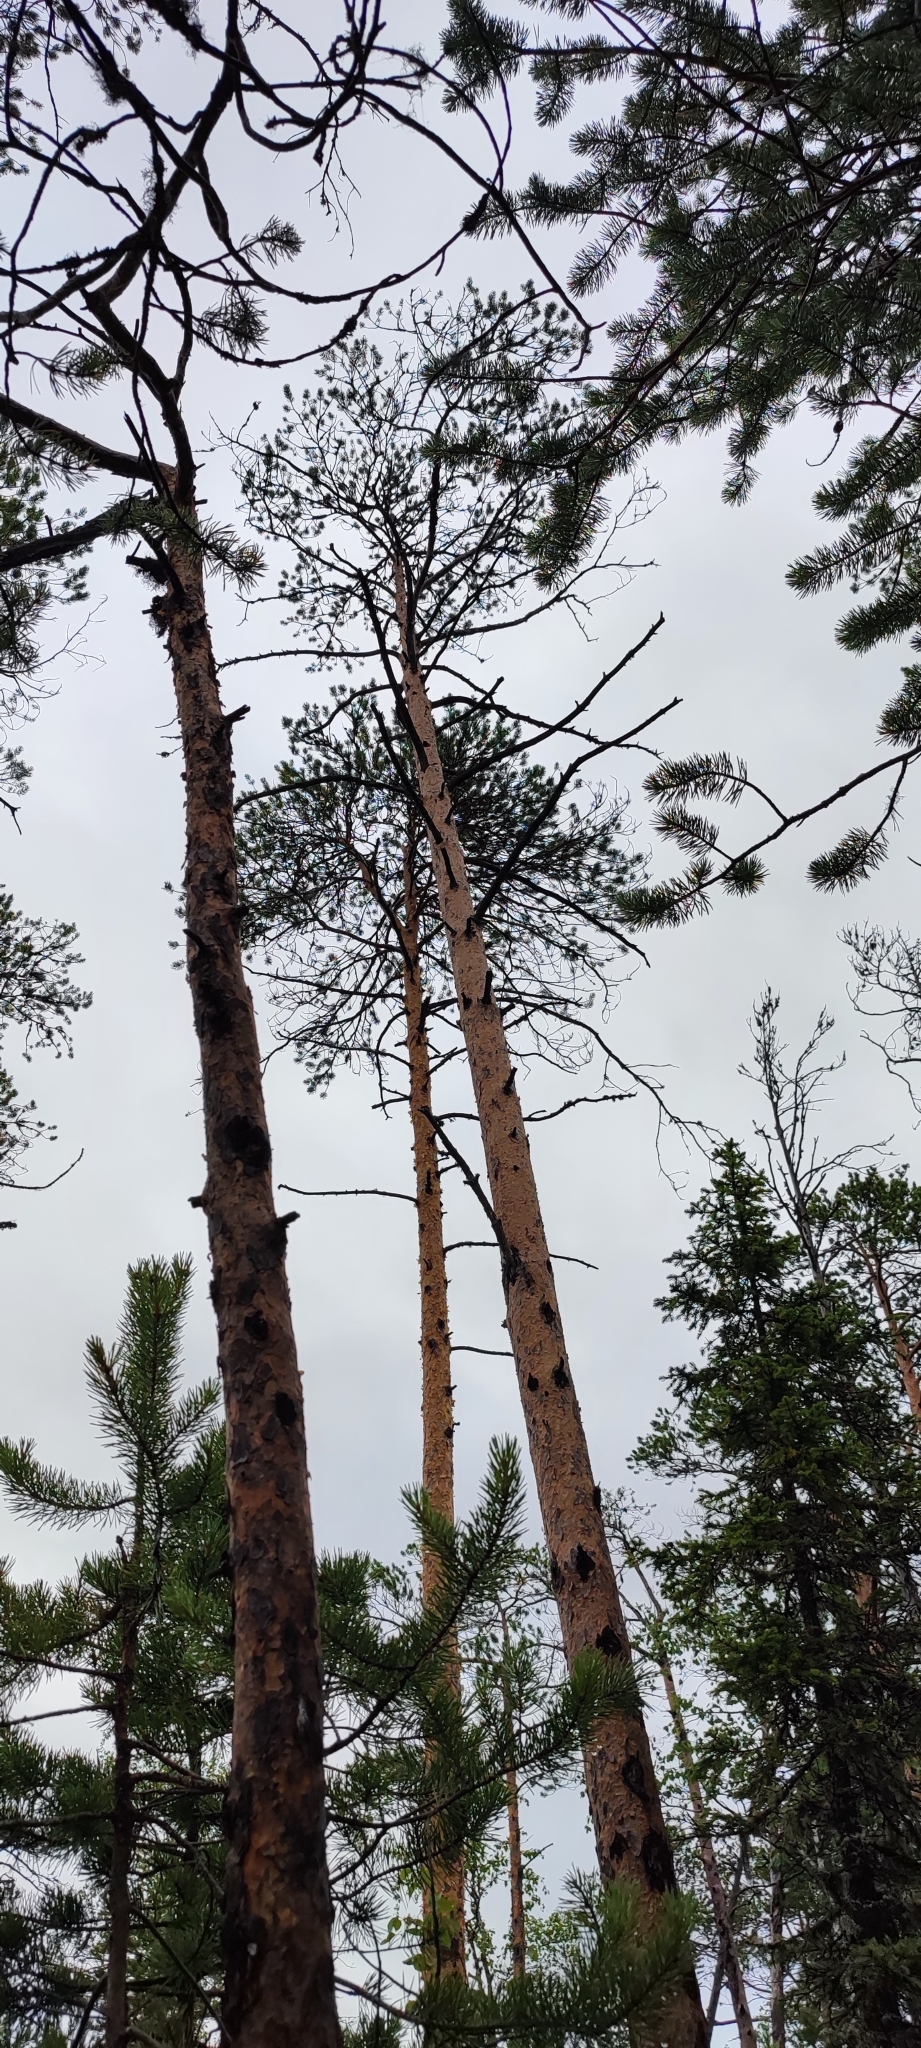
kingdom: Plantae
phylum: Tracheophyta
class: Pinopsida
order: Pinales
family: Pinaceae
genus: Pinus
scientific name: Pinus sylvestris
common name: Scots pine
